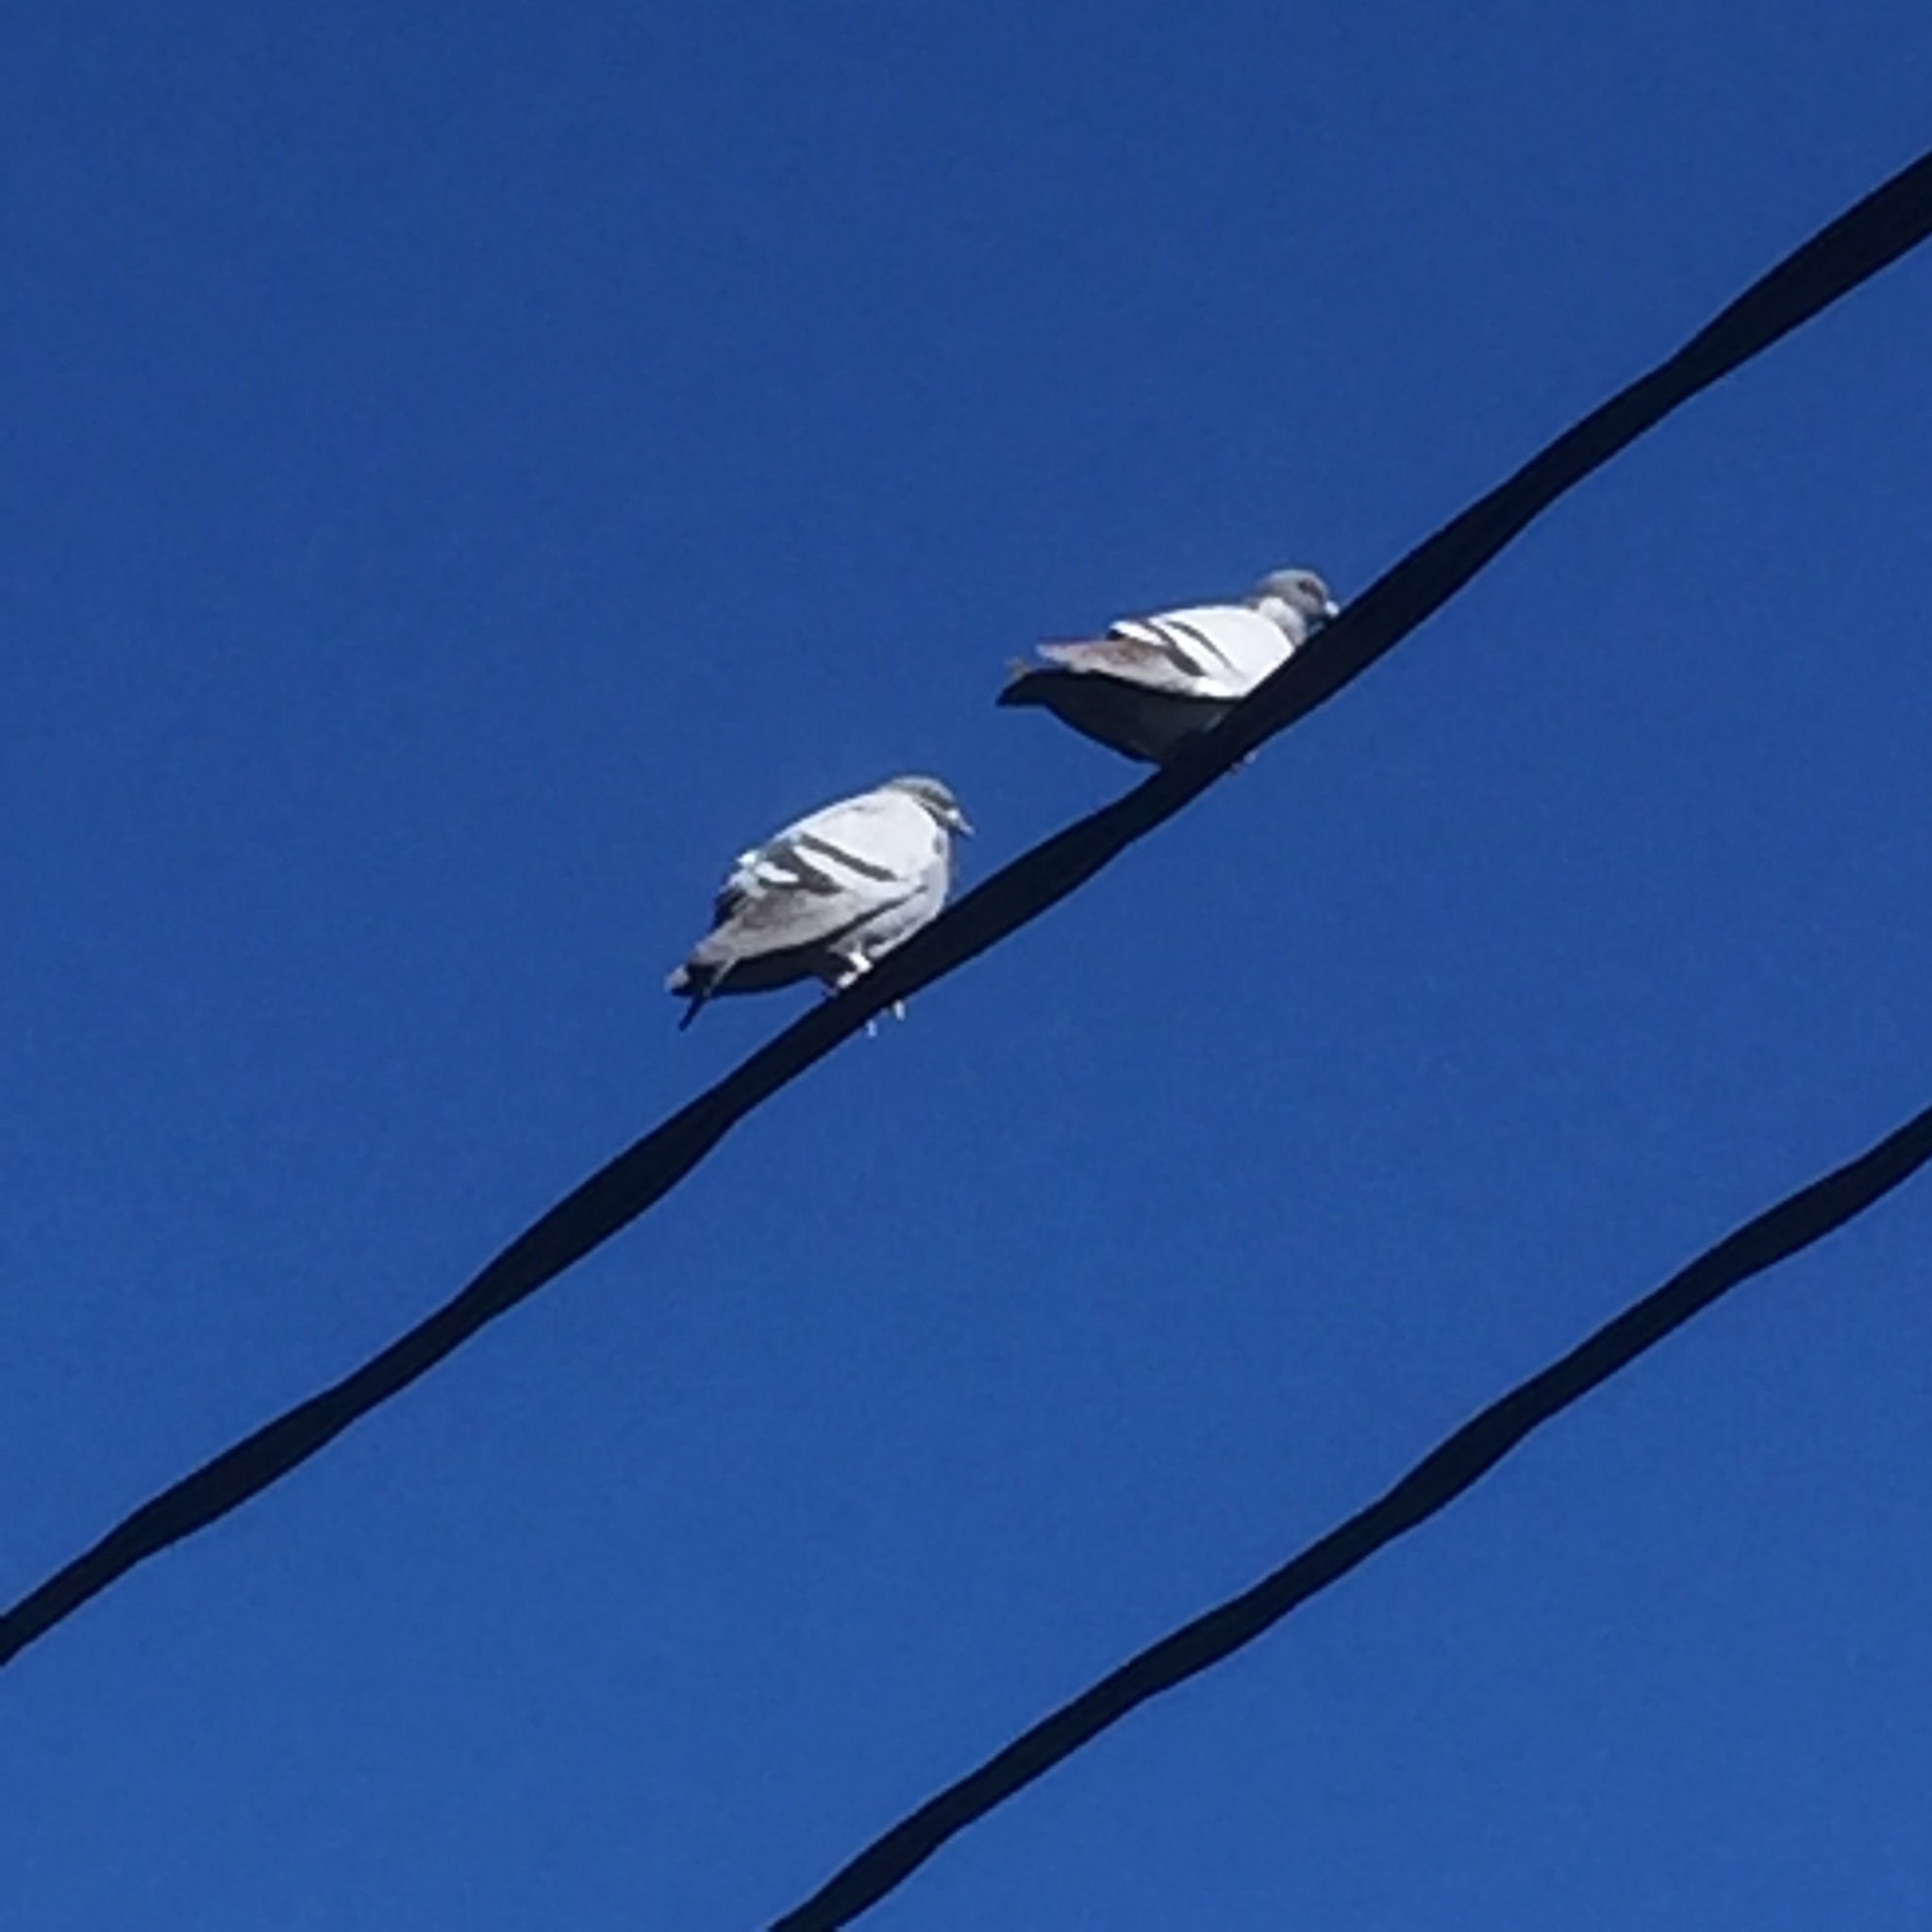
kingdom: Animalia
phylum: Chordata
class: Aves
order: Columbiformes
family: Columbidae
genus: Columba
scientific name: Columba livia
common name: Rock pigeon
